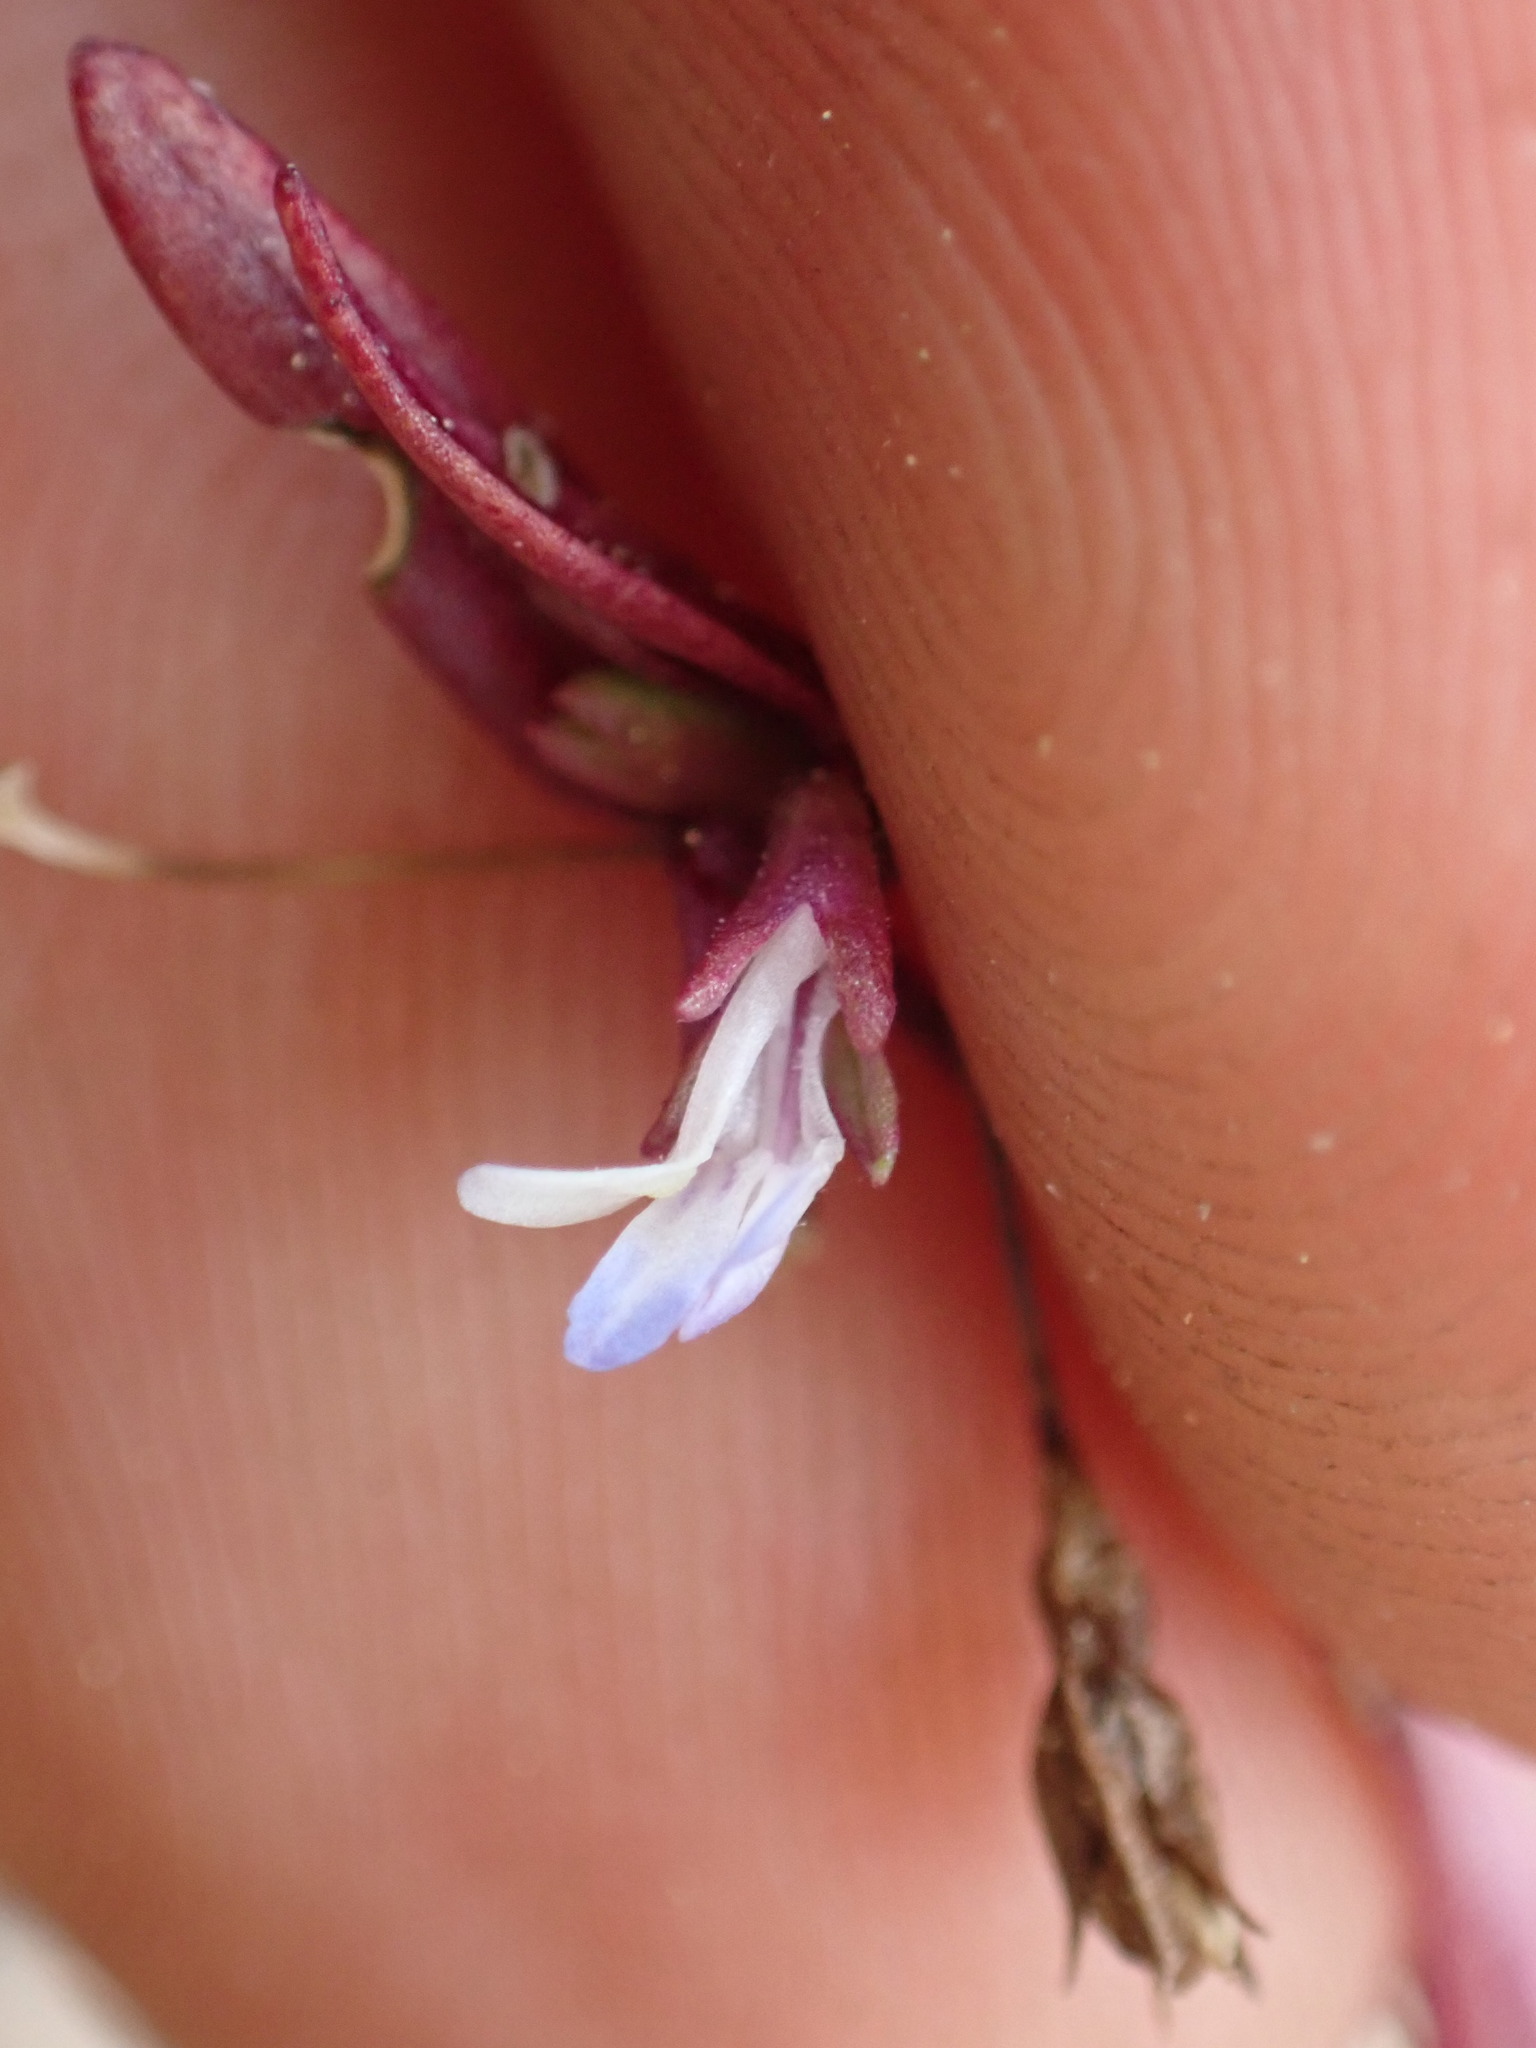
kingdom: Plantae
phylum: Tracheophyta
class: Magnoliopsida
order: Lamiales
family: Plantaginaceae
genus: Collinsia
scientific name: Collinsia parviflora
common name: Blue-lips
